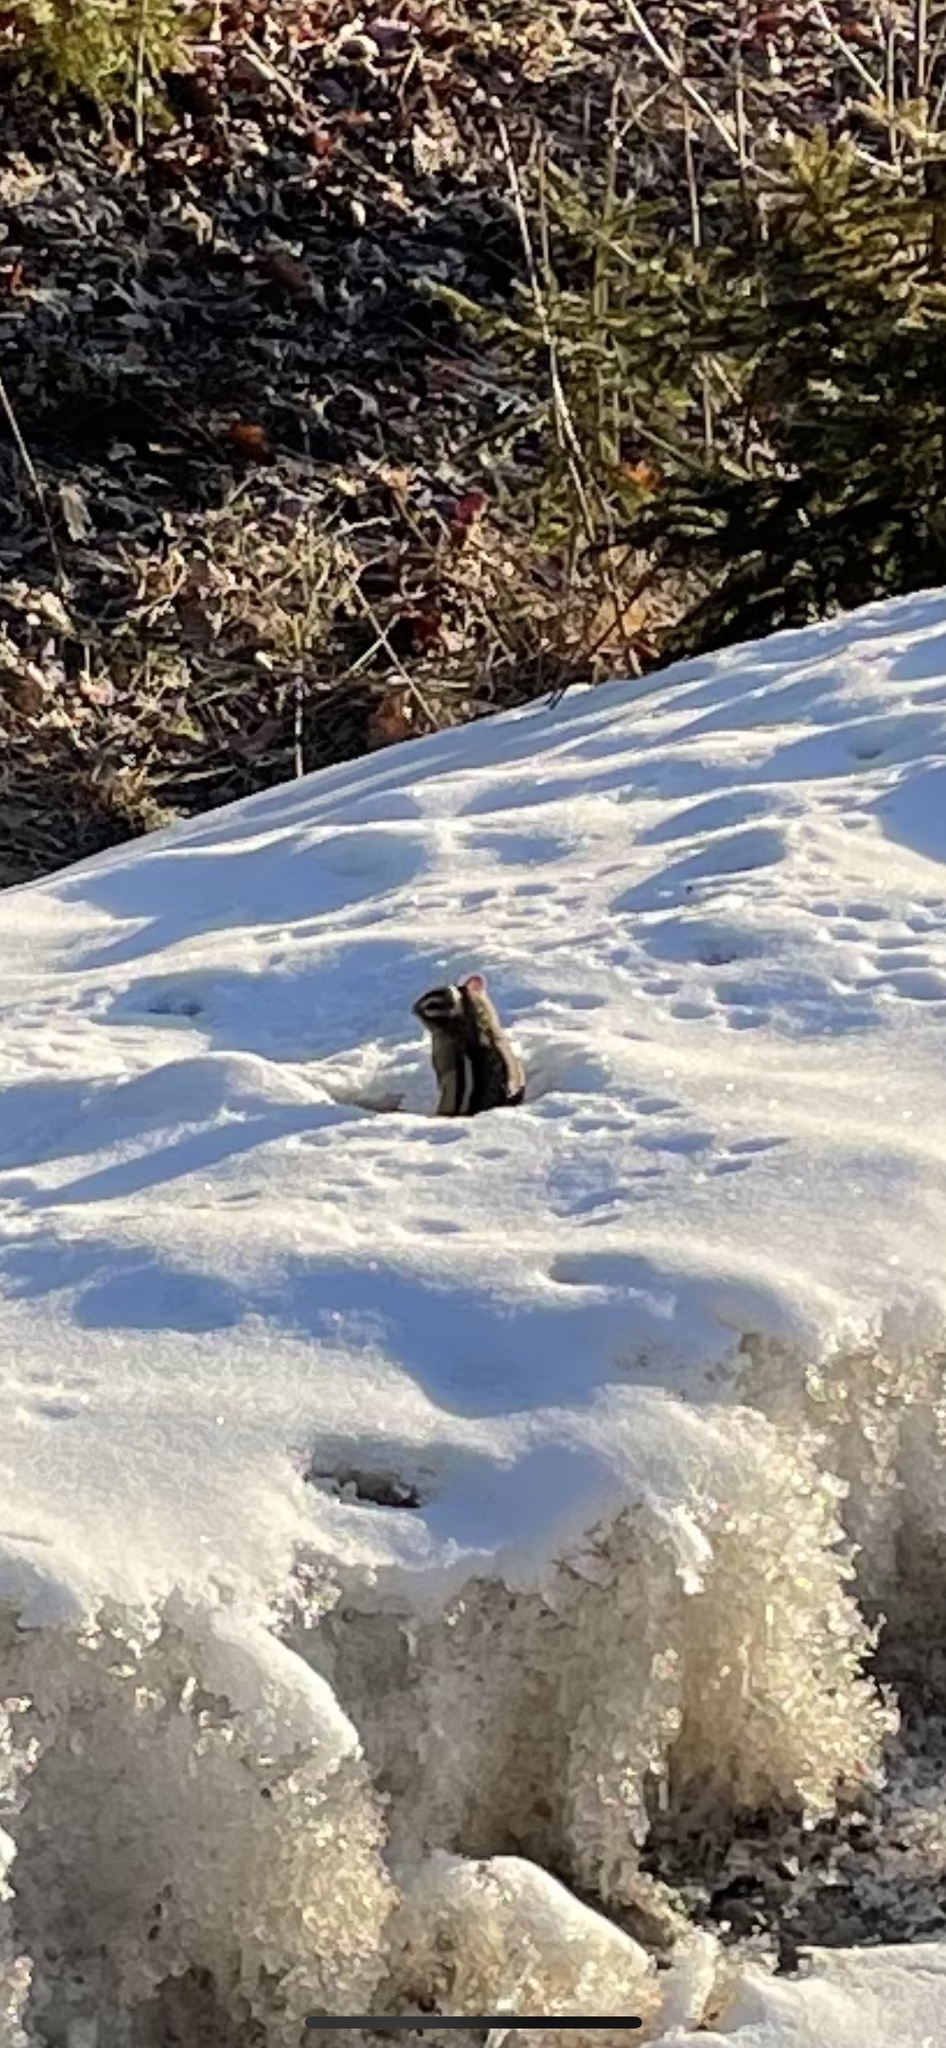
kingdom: Animalia
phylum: Chordata
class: Mammalia
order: Rodentia
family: Sciuridae
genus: Tamias
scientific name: Tamias striatus
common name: Eastern chipmunk
